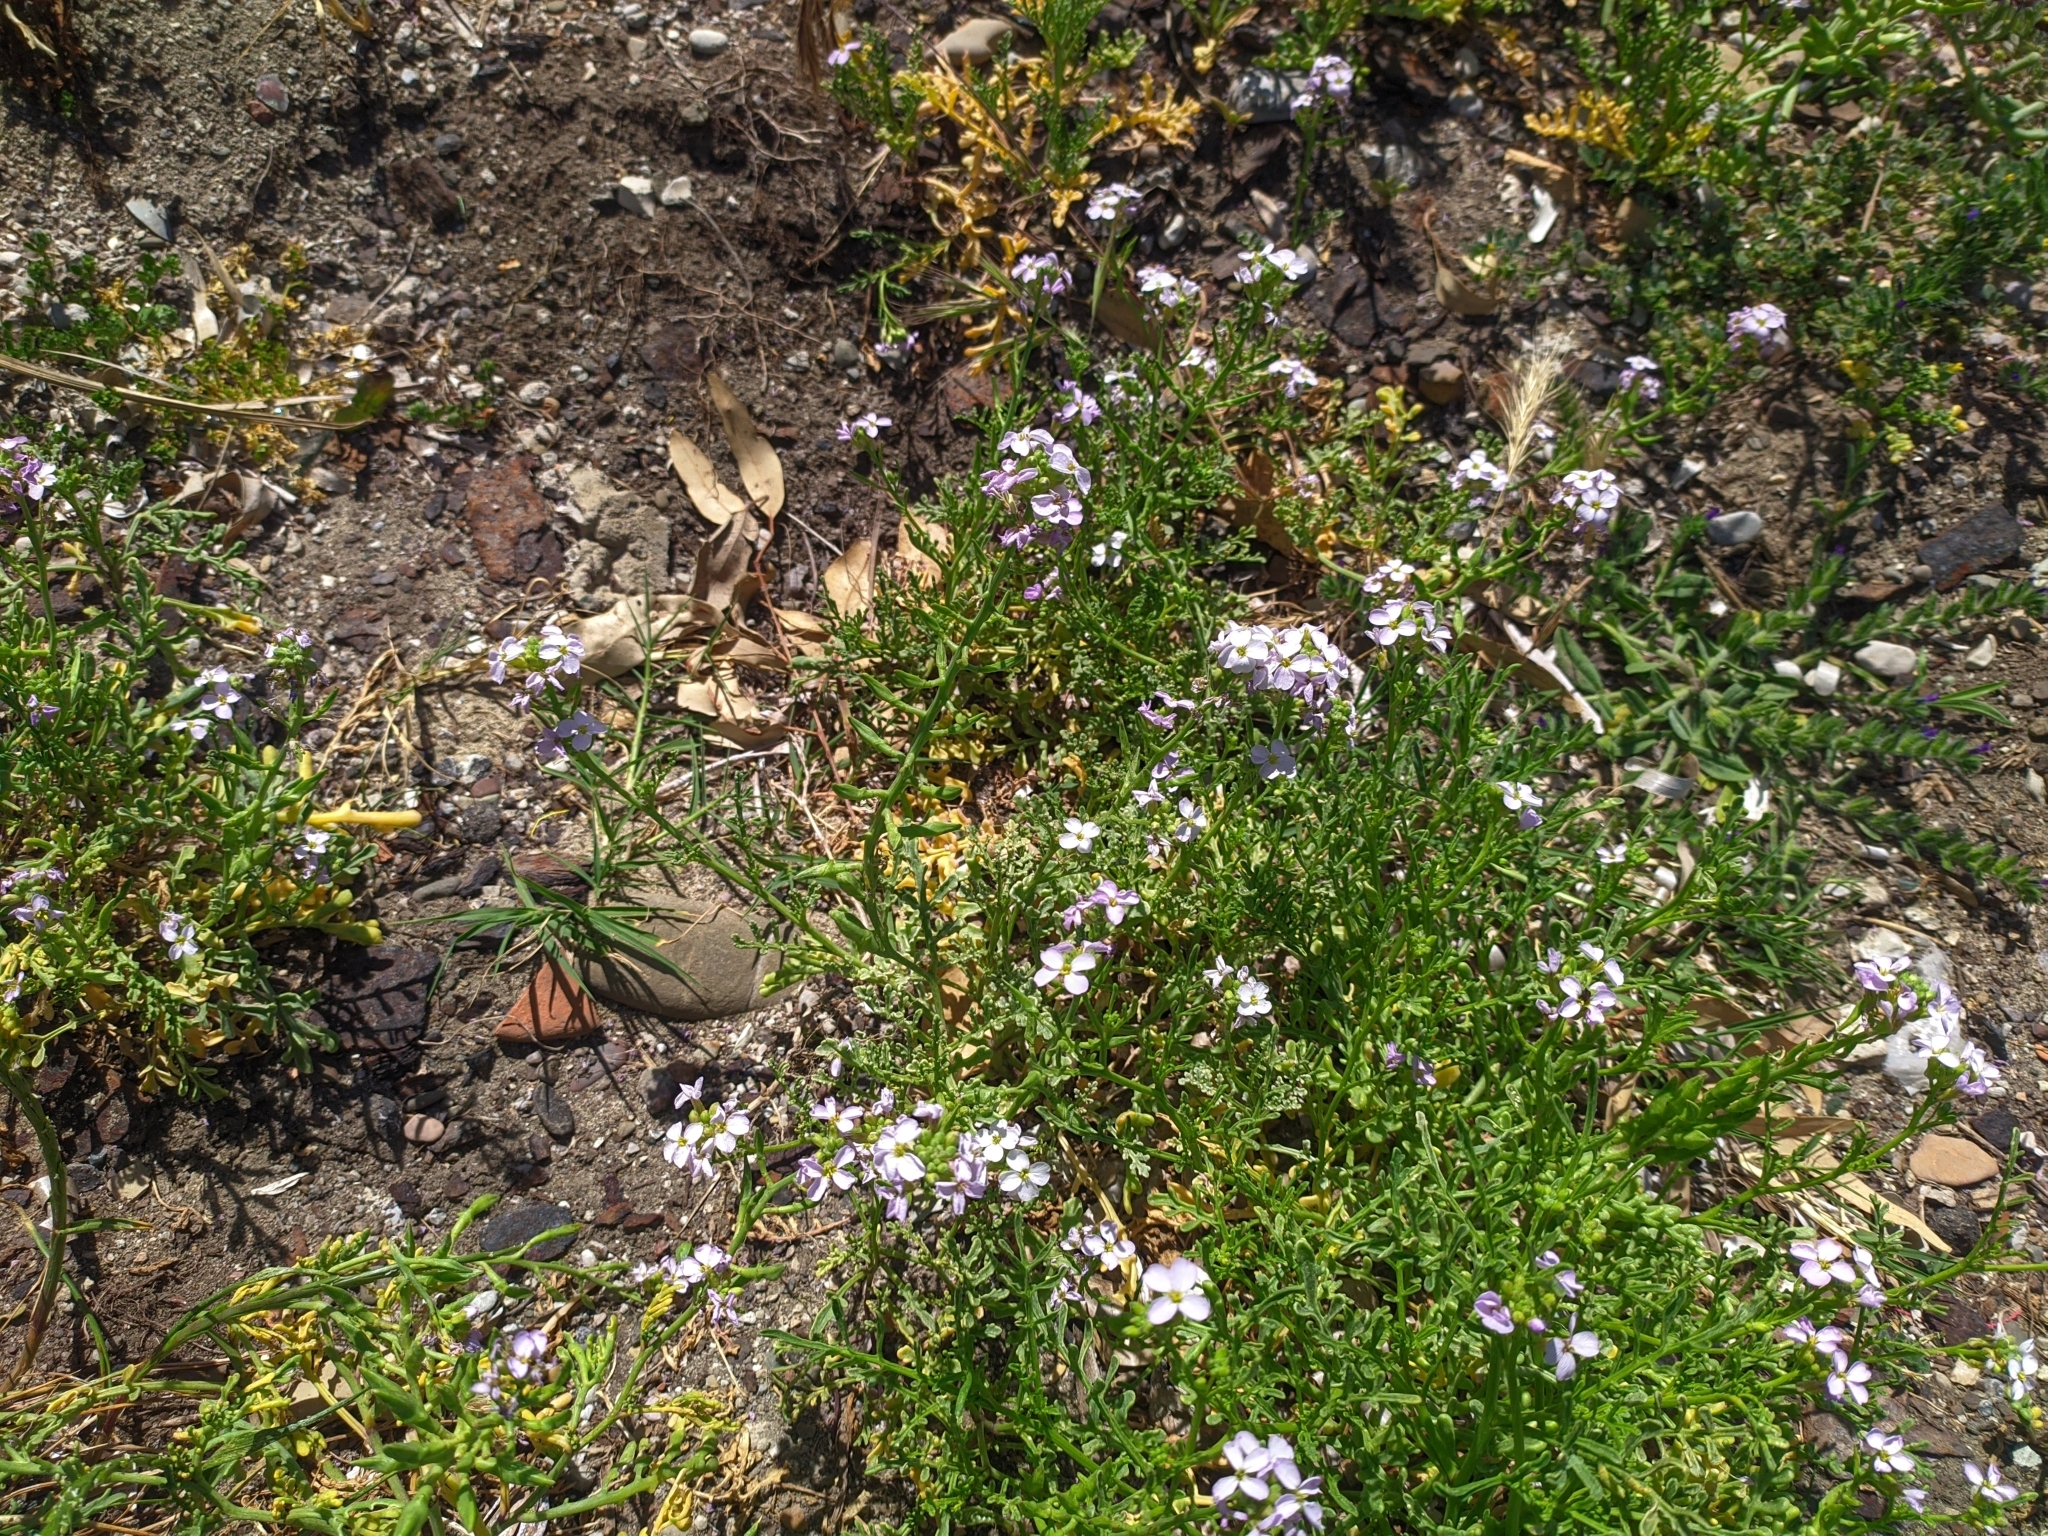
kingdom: Plantae
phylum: Tracheophyta
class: Magnoliopsida
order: Brassicales
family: Brassicaceae
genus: Cakile
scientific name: Cakile maritima
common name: Sea rocket
